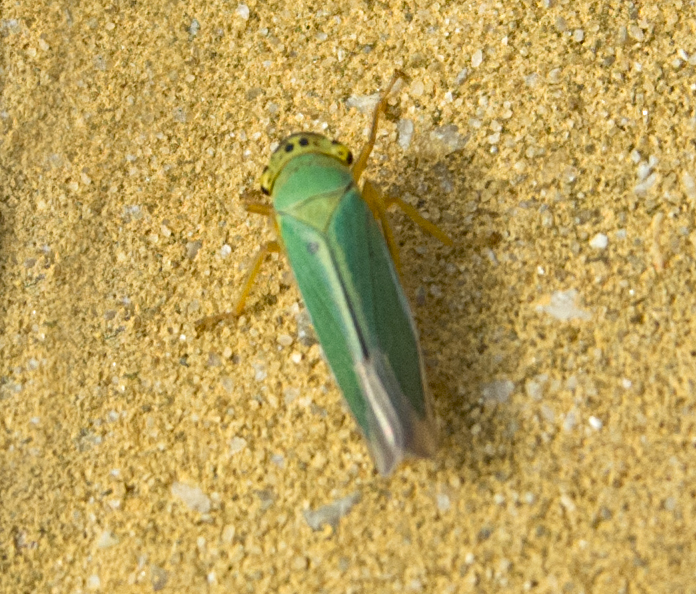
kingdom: Animalia
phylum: Arthropoda
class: Insecta
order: Hemiptera
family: Cicadellidae
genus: Cicadella
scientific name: Cicadella viridis
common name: Leafhopper
